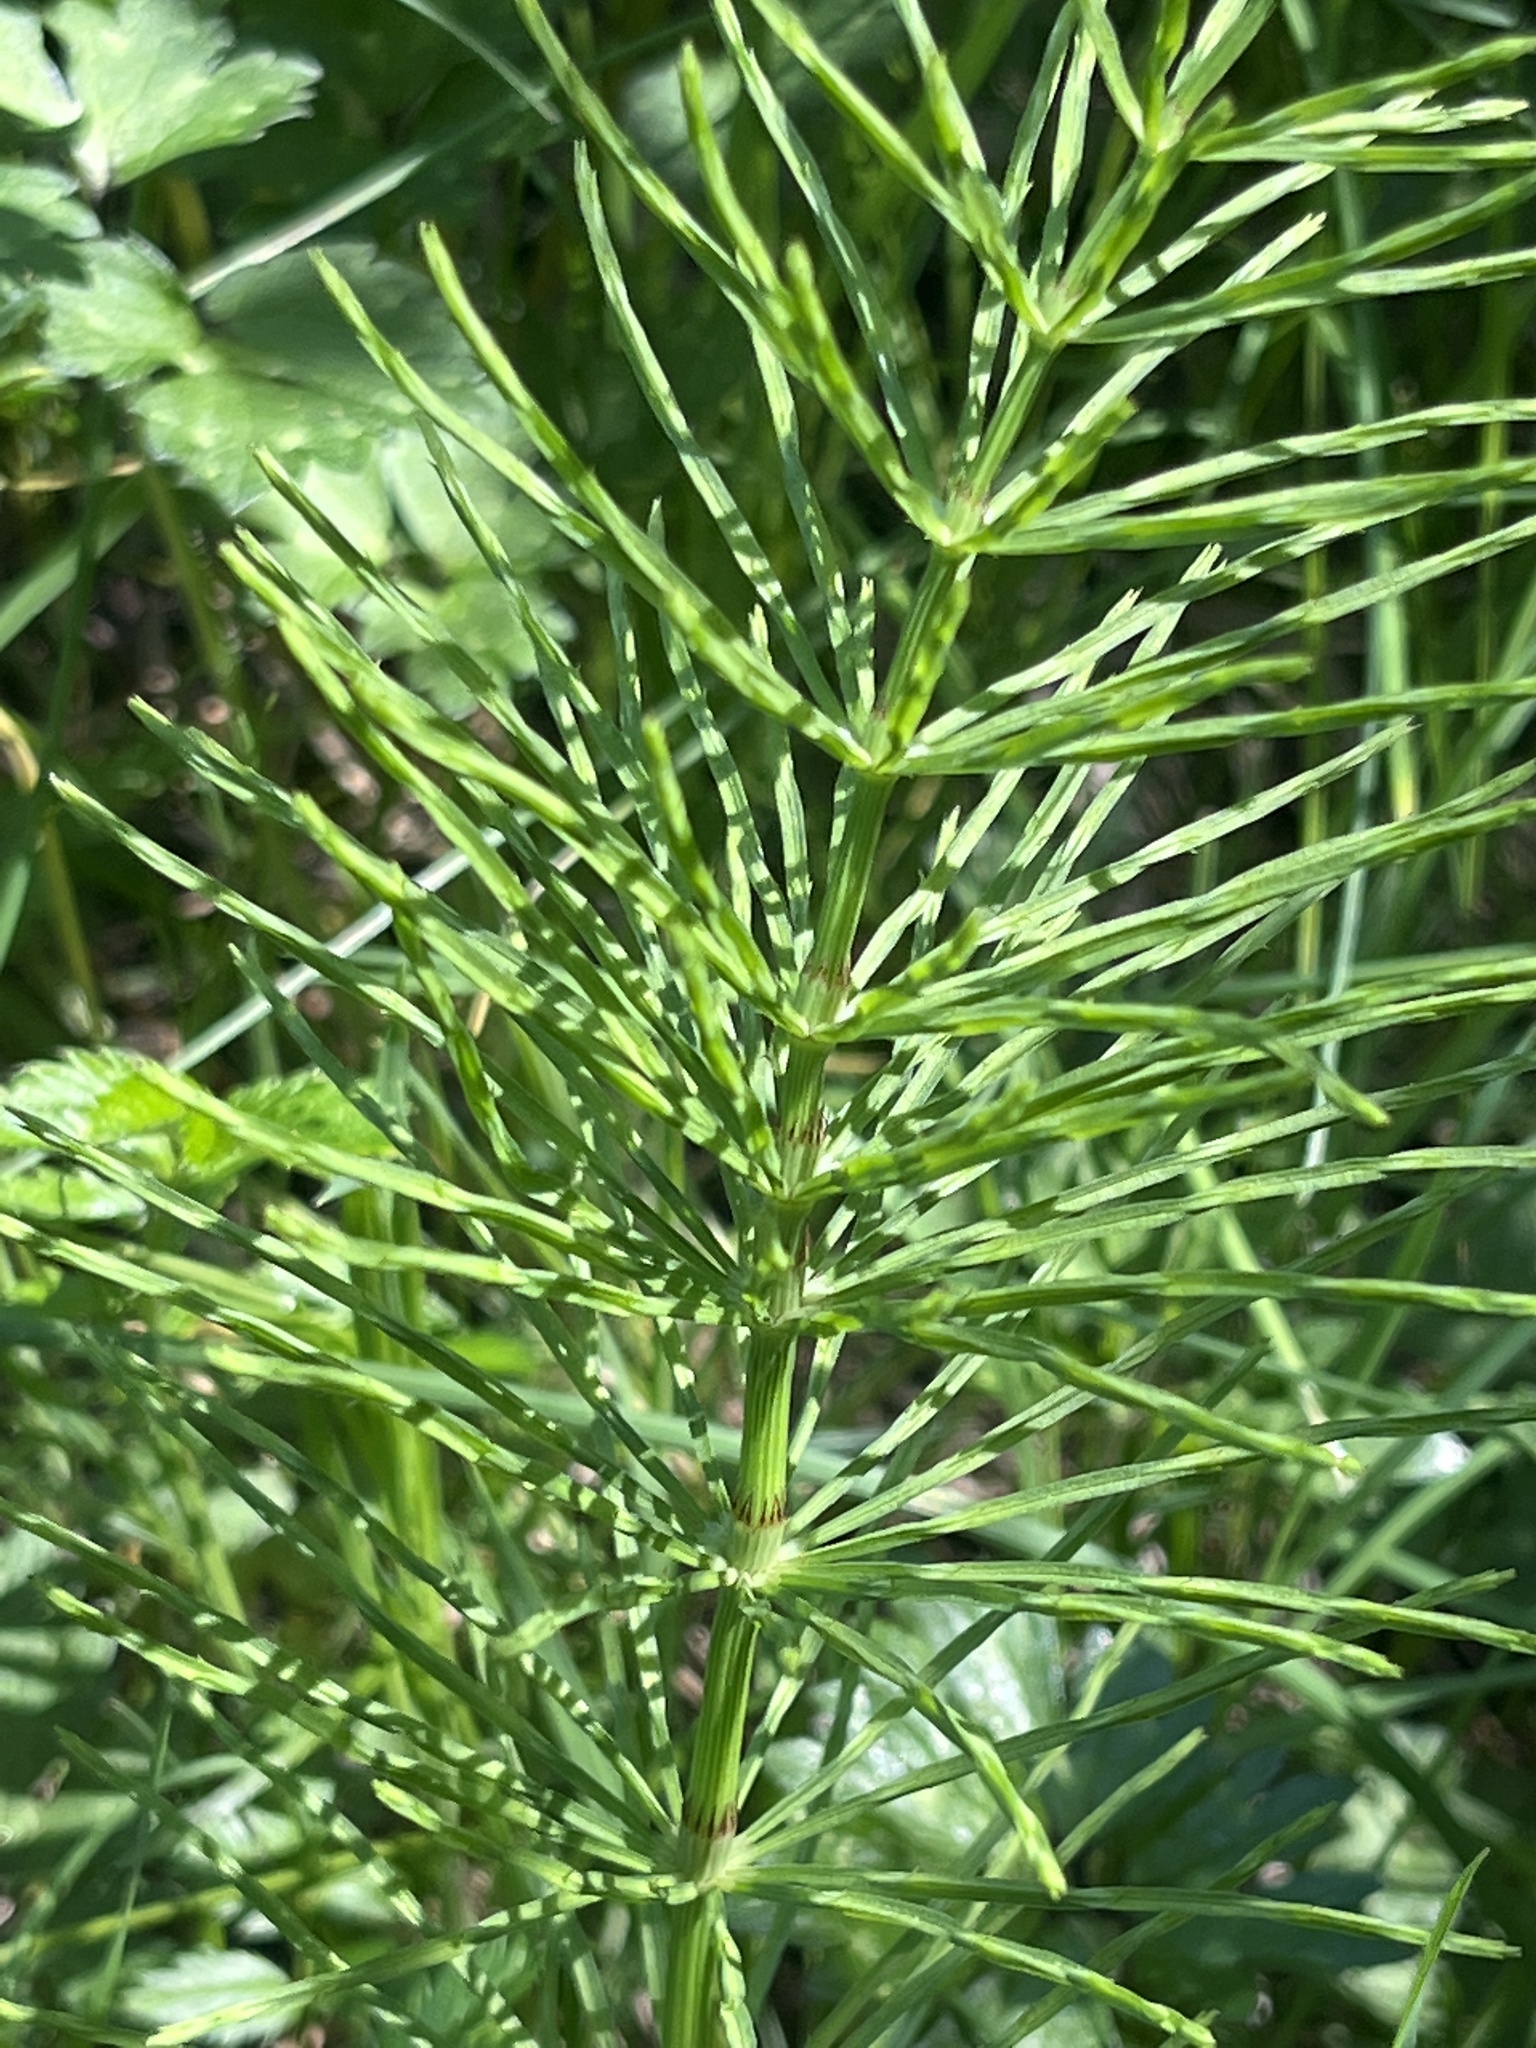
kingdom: Plantae
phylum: Tracheophyta
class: Polypodiopsida
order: Equisetales
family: Equisetaceae
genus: Equisetum
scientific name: Equisetum arvense
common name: Field horsetail
